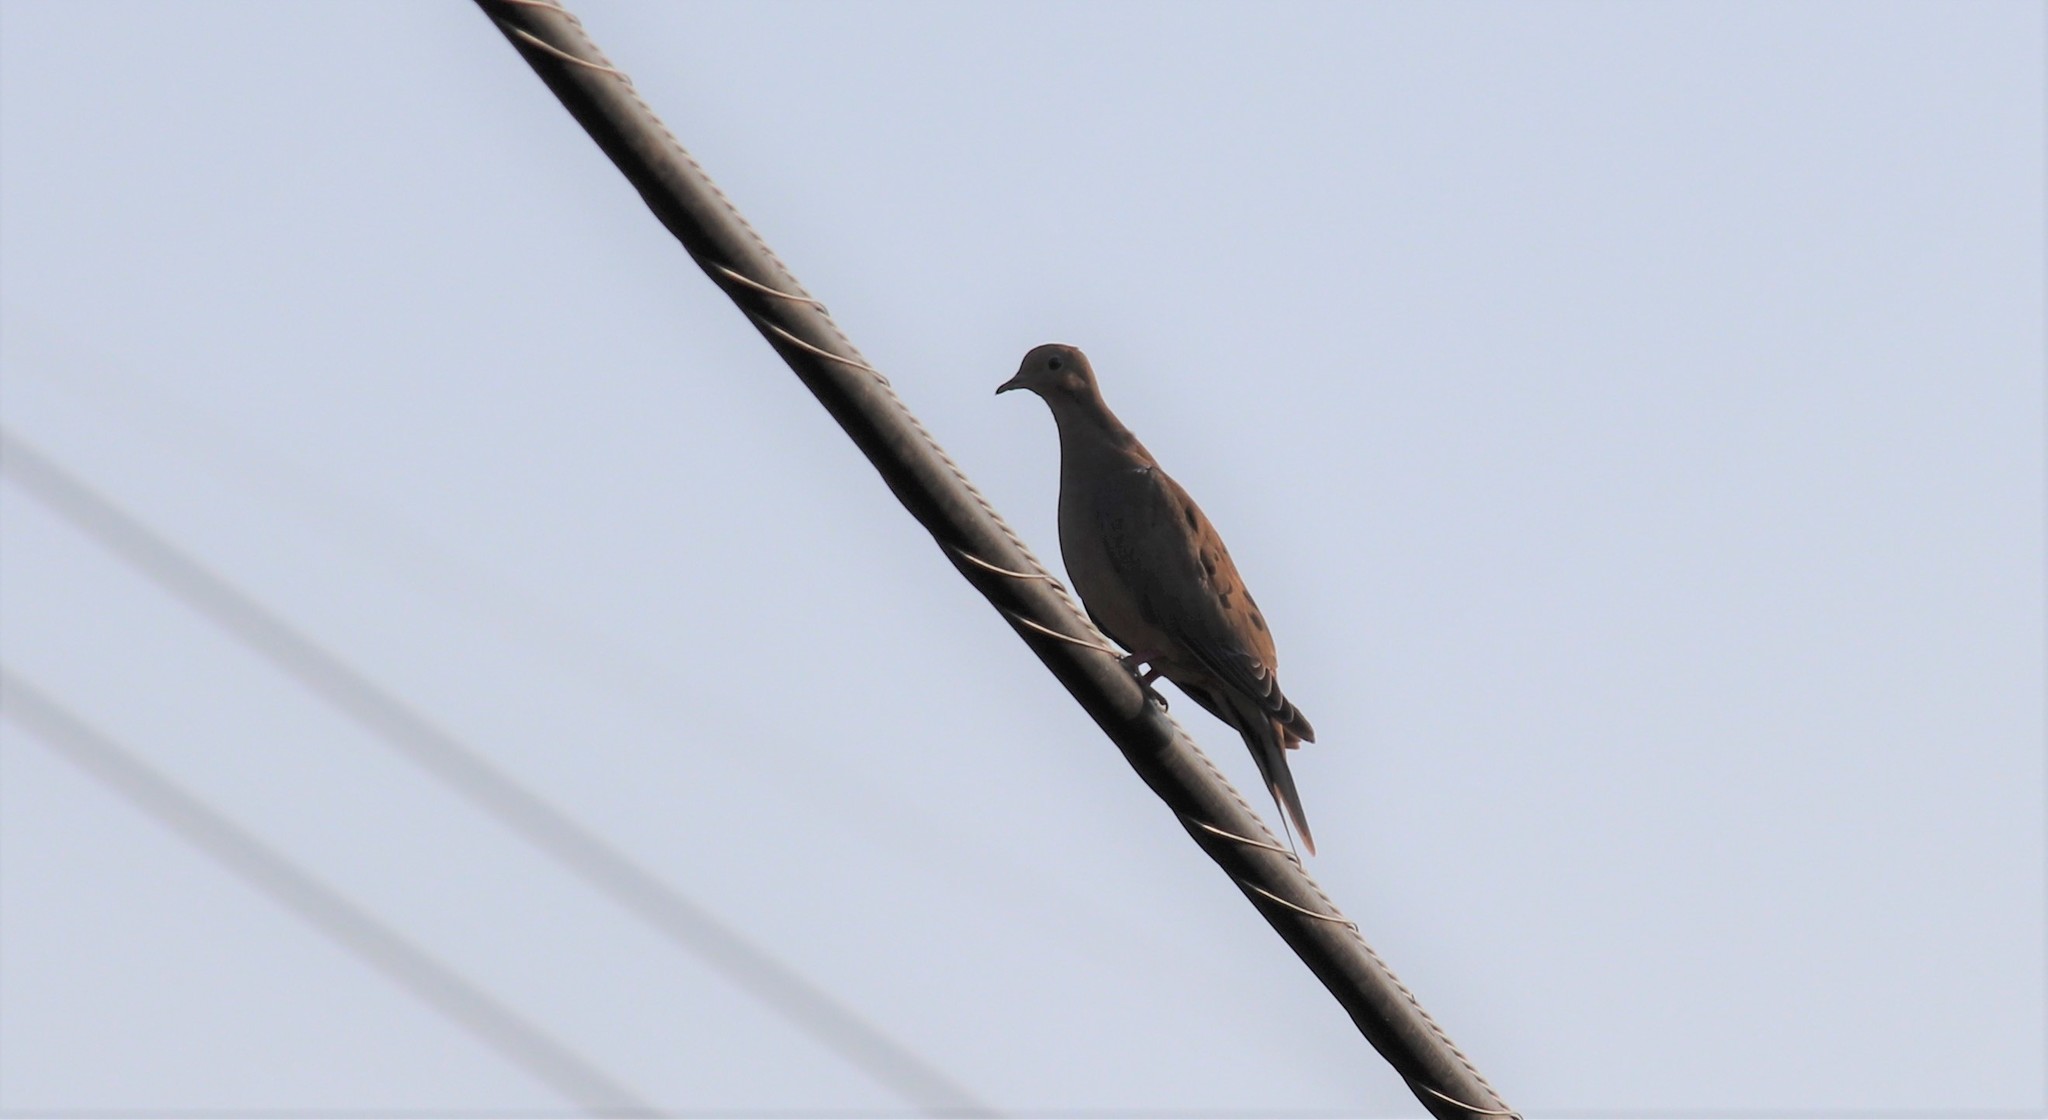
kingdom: Animalia
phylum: Chordata
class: Aves
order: Columbiformes
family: Columbidae
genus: Zenaida
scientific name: Zenaida macroura
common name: Mourning dove
